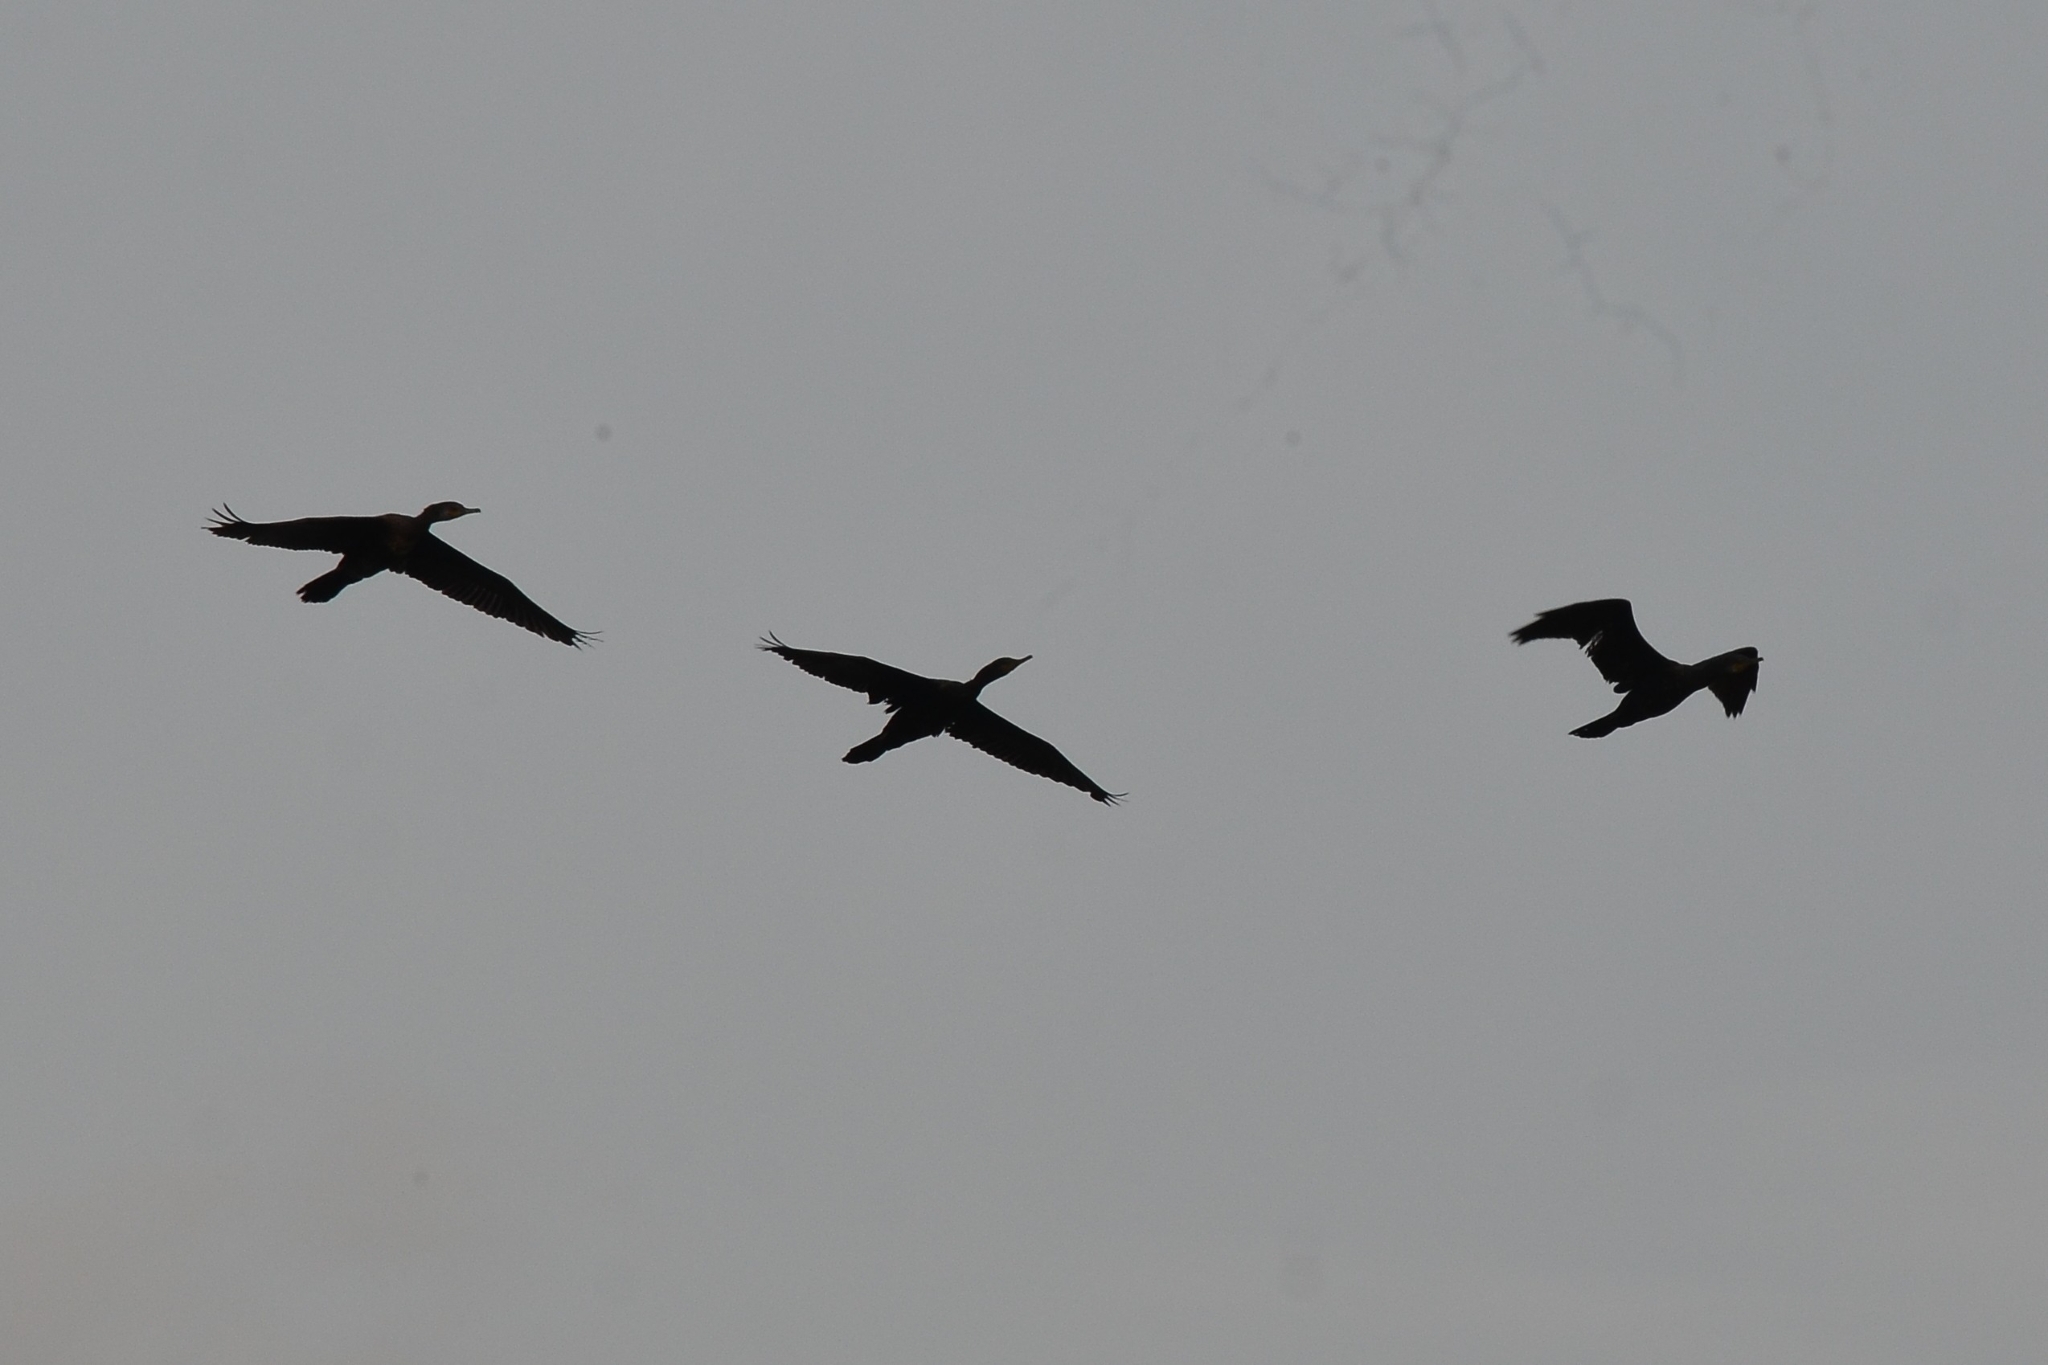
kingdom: Animalia
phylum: Chordata
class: Aves
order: Suliformes
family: Phalacrocoracidae
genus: Phalacrocorax
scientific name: Phalacrocorax fuscicollis
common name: Indian cormorant
